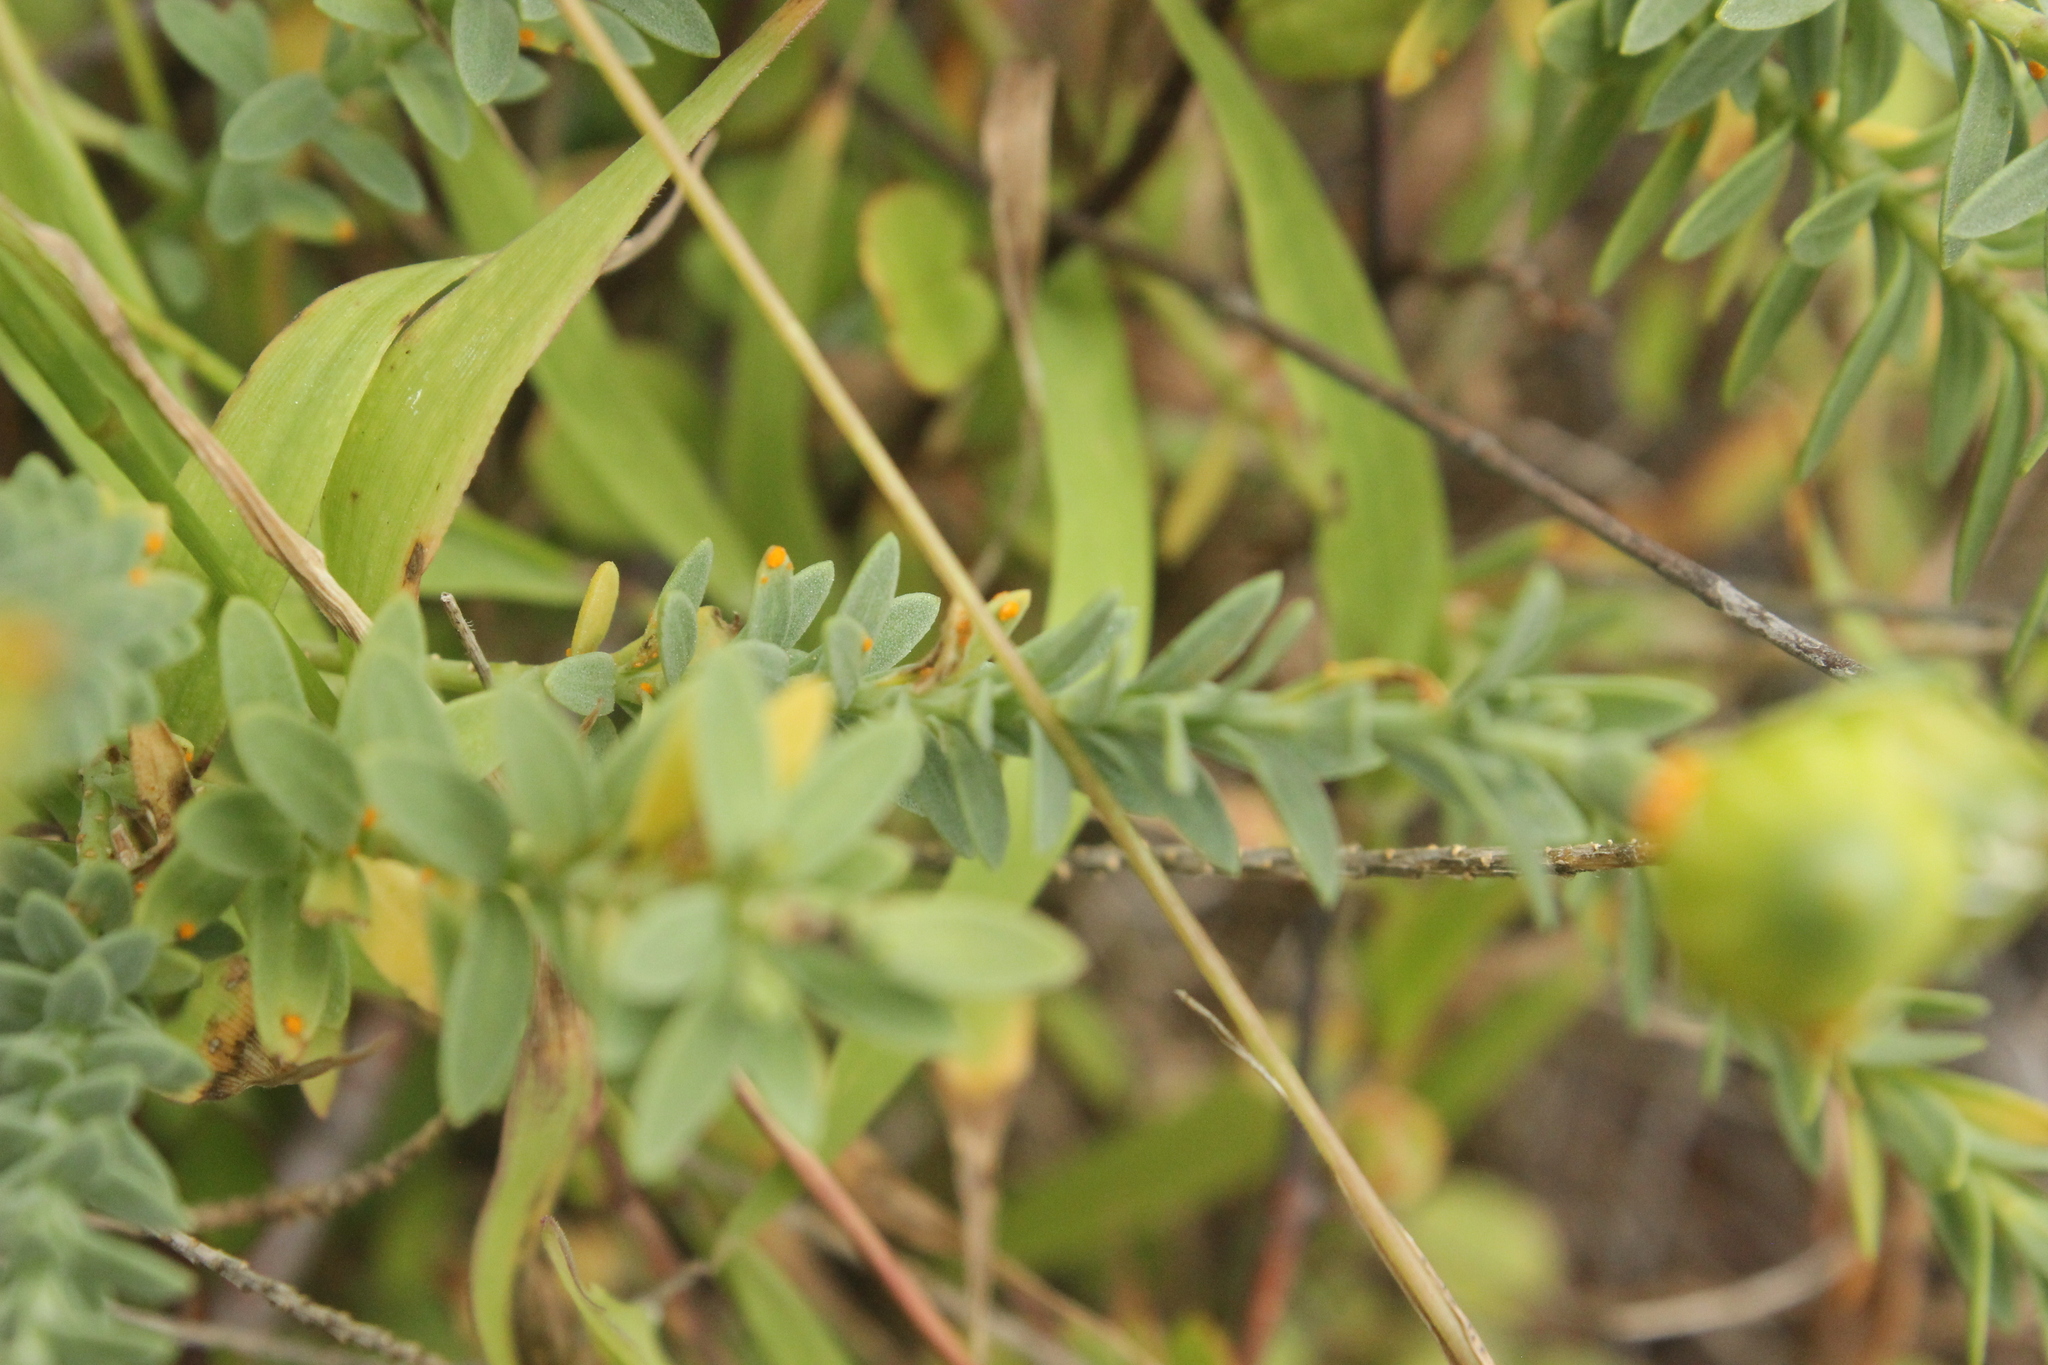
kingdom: Fungi
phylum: Basidiomycota
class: Pucciniomycetes
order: Pucciniales
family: Melampsoraceae
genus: Melampsora
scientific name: Melampsora lini
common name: Flax rust
